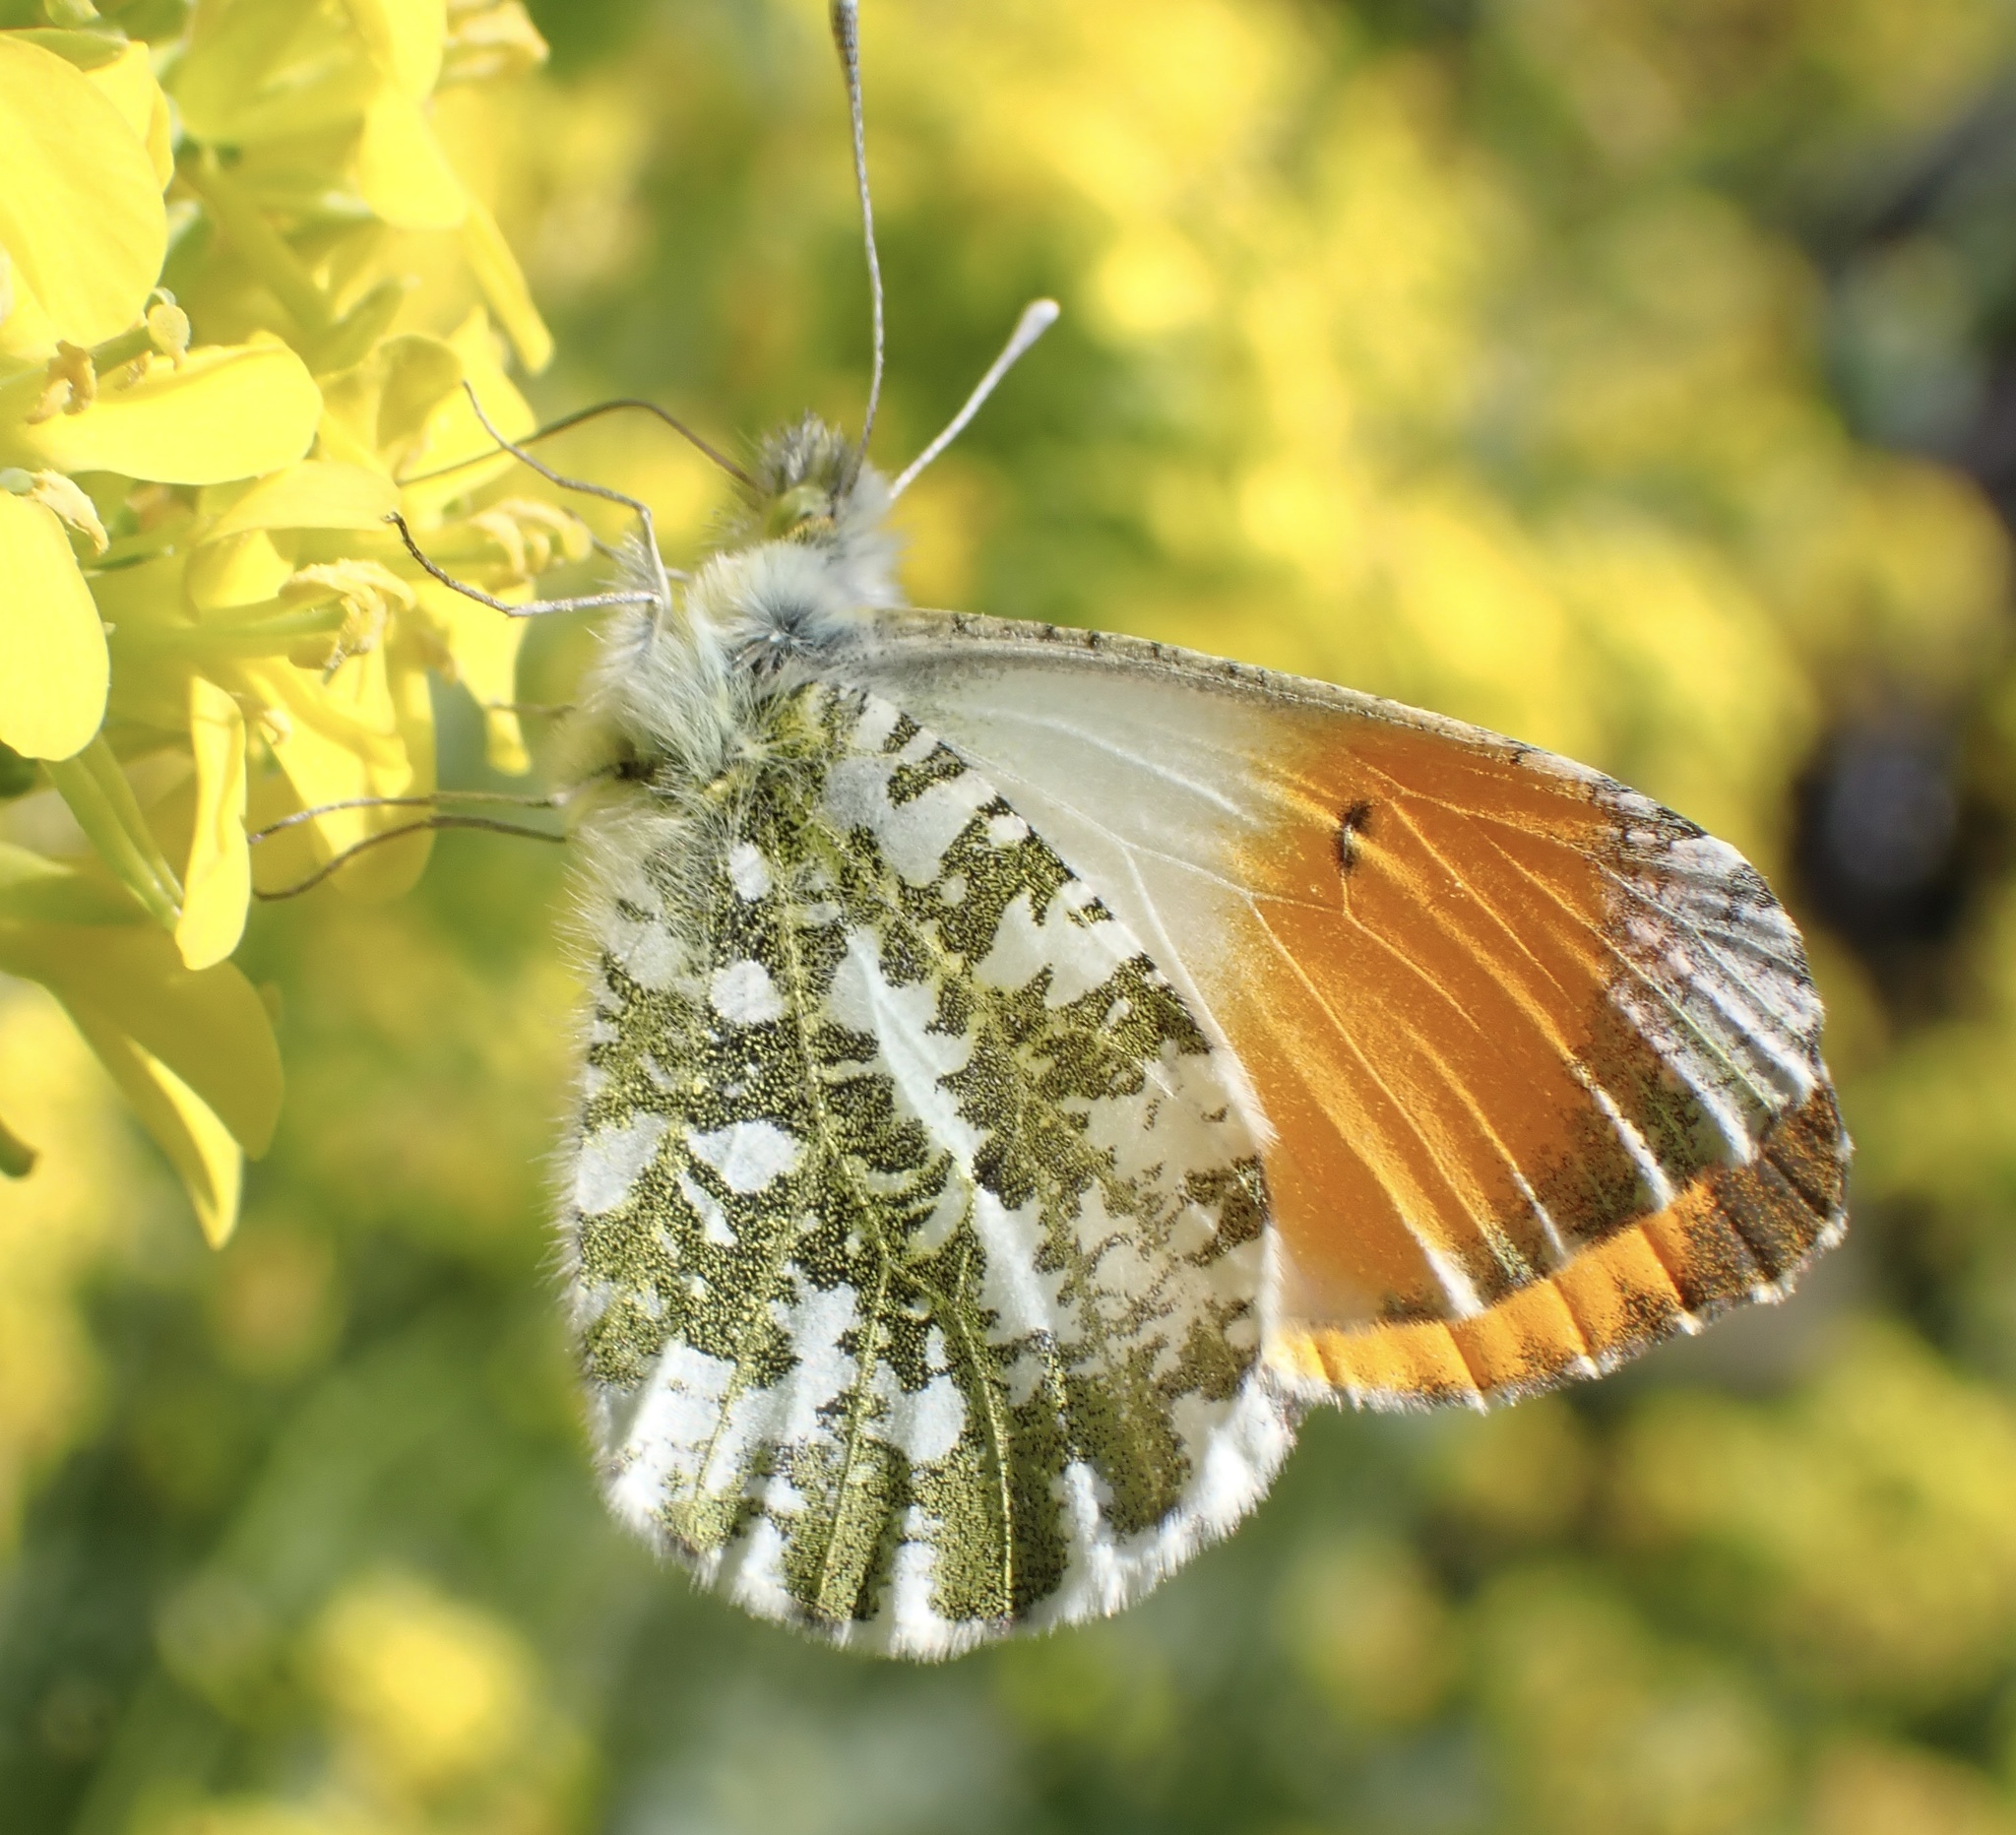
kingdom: Animalia
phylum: Arthropoda
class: Insecta
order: Lepidoptera
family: Pieridae
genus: Anthocharis
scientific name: Anthocharis cardamines
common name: Orange-tip
